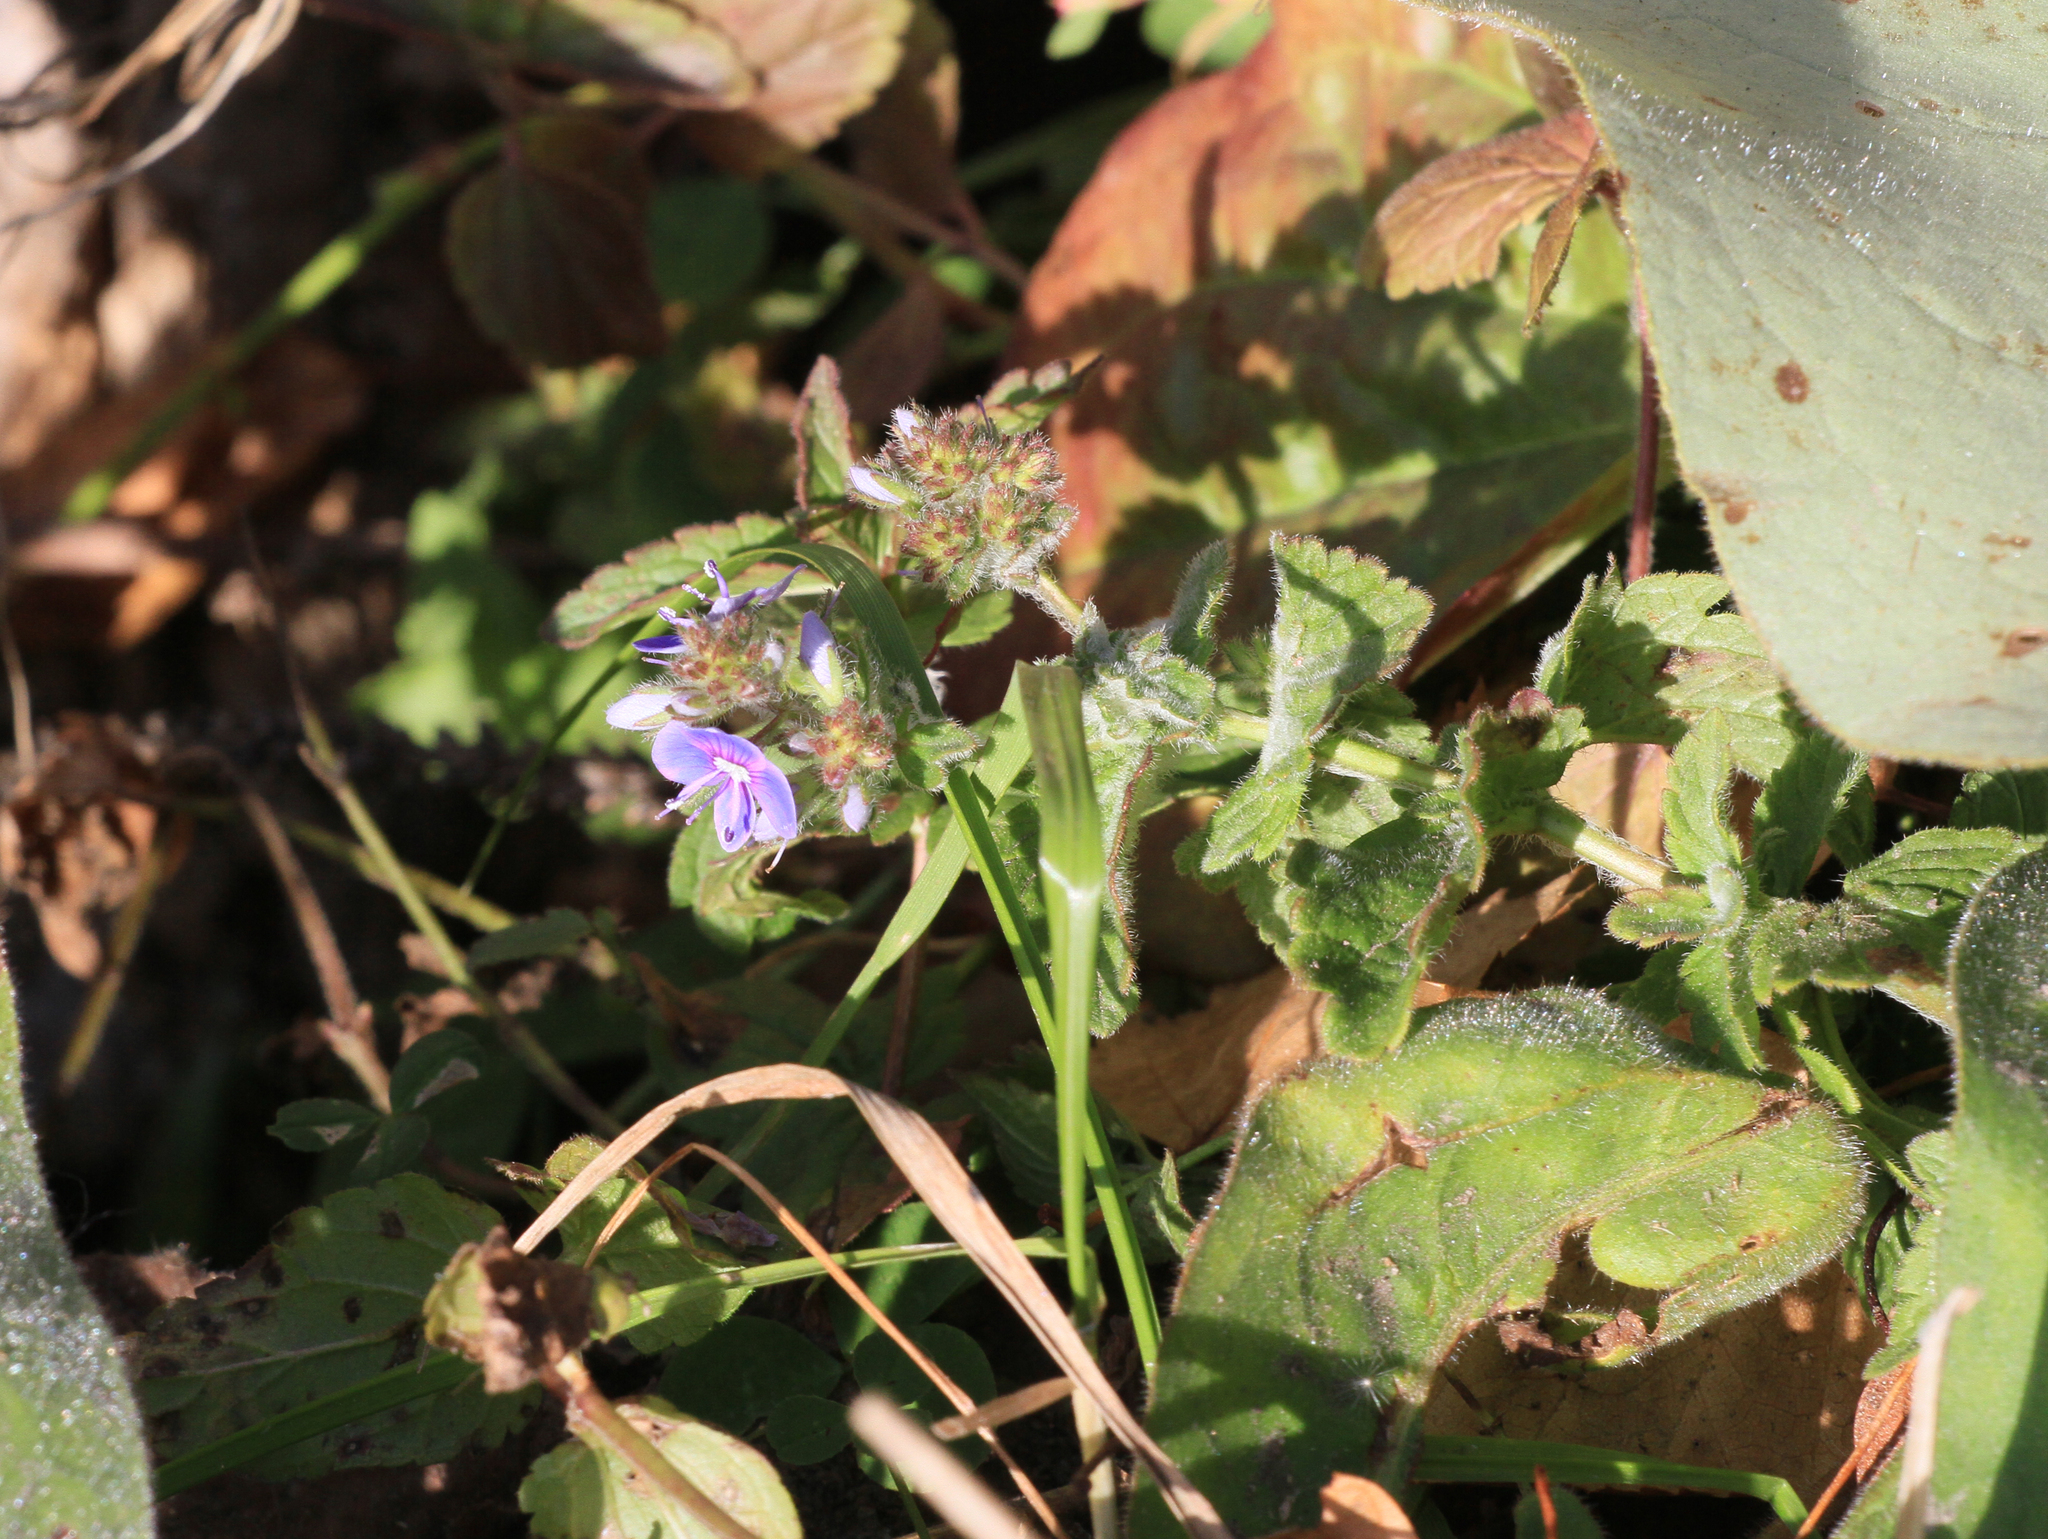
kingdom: Plantae
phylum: Tracheophyta
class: Magnoliopsida
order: Lamiales
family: Plantaginaceae
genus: Veronica
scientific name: Veronica chamaedrys
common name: Germander speedwell
